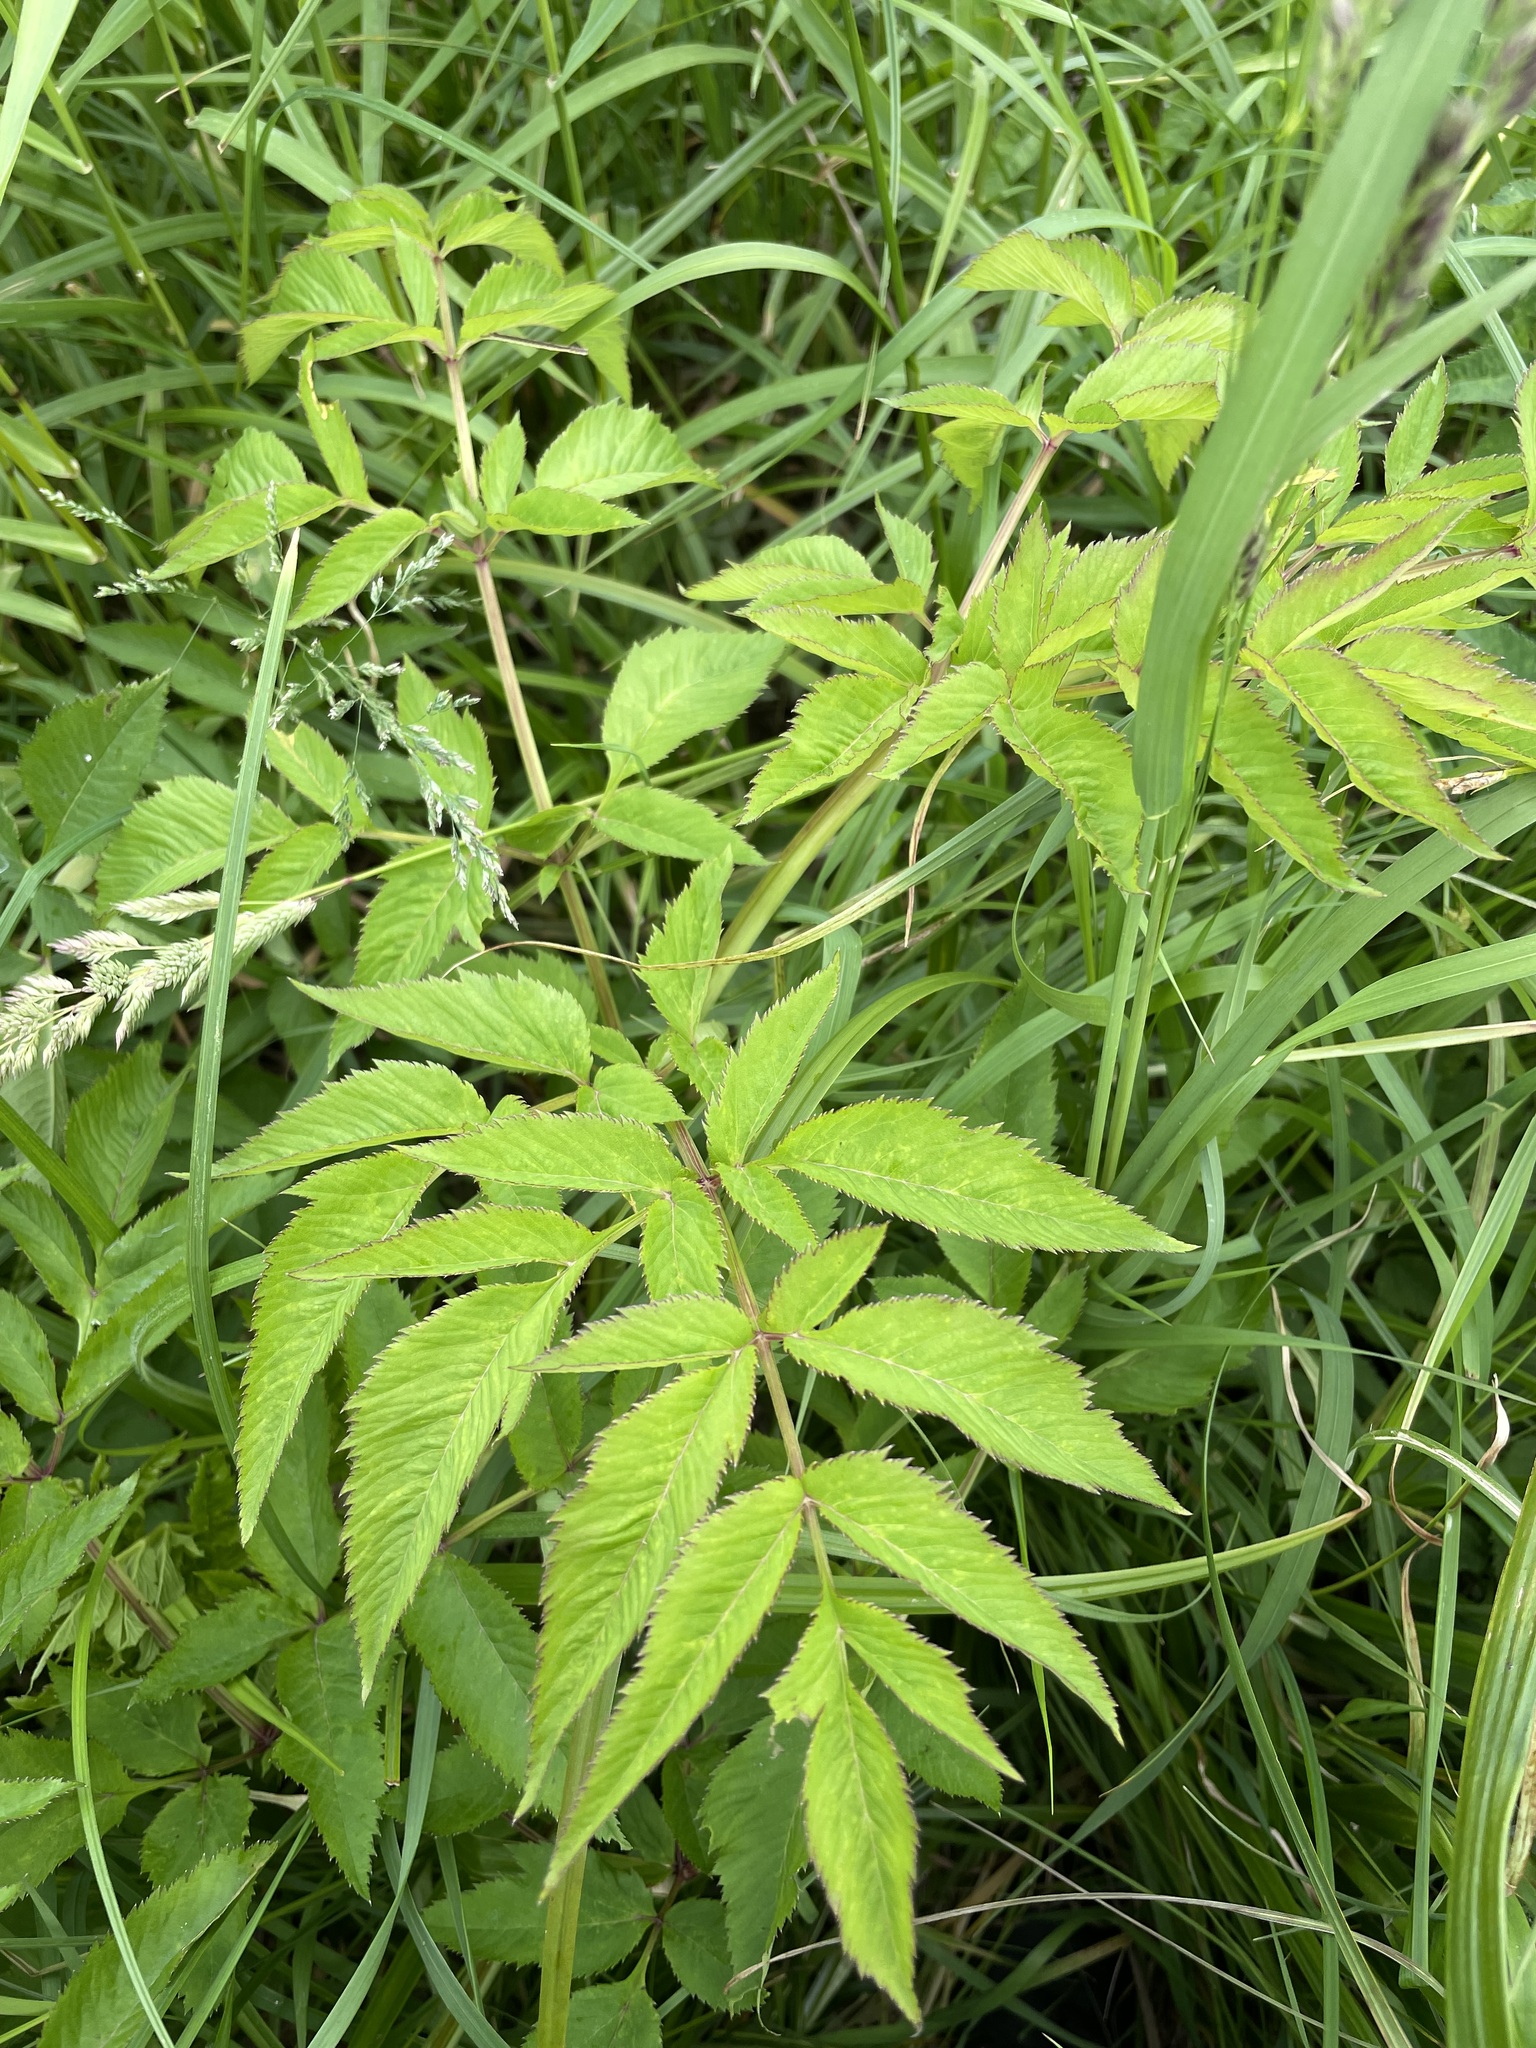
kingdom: Plantae
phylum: Tracheophyta
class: Magnoliopsida
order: Apiales
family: Apiaceae
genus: Angelica
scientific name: Angelica sylvestris
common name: Wild angelica
